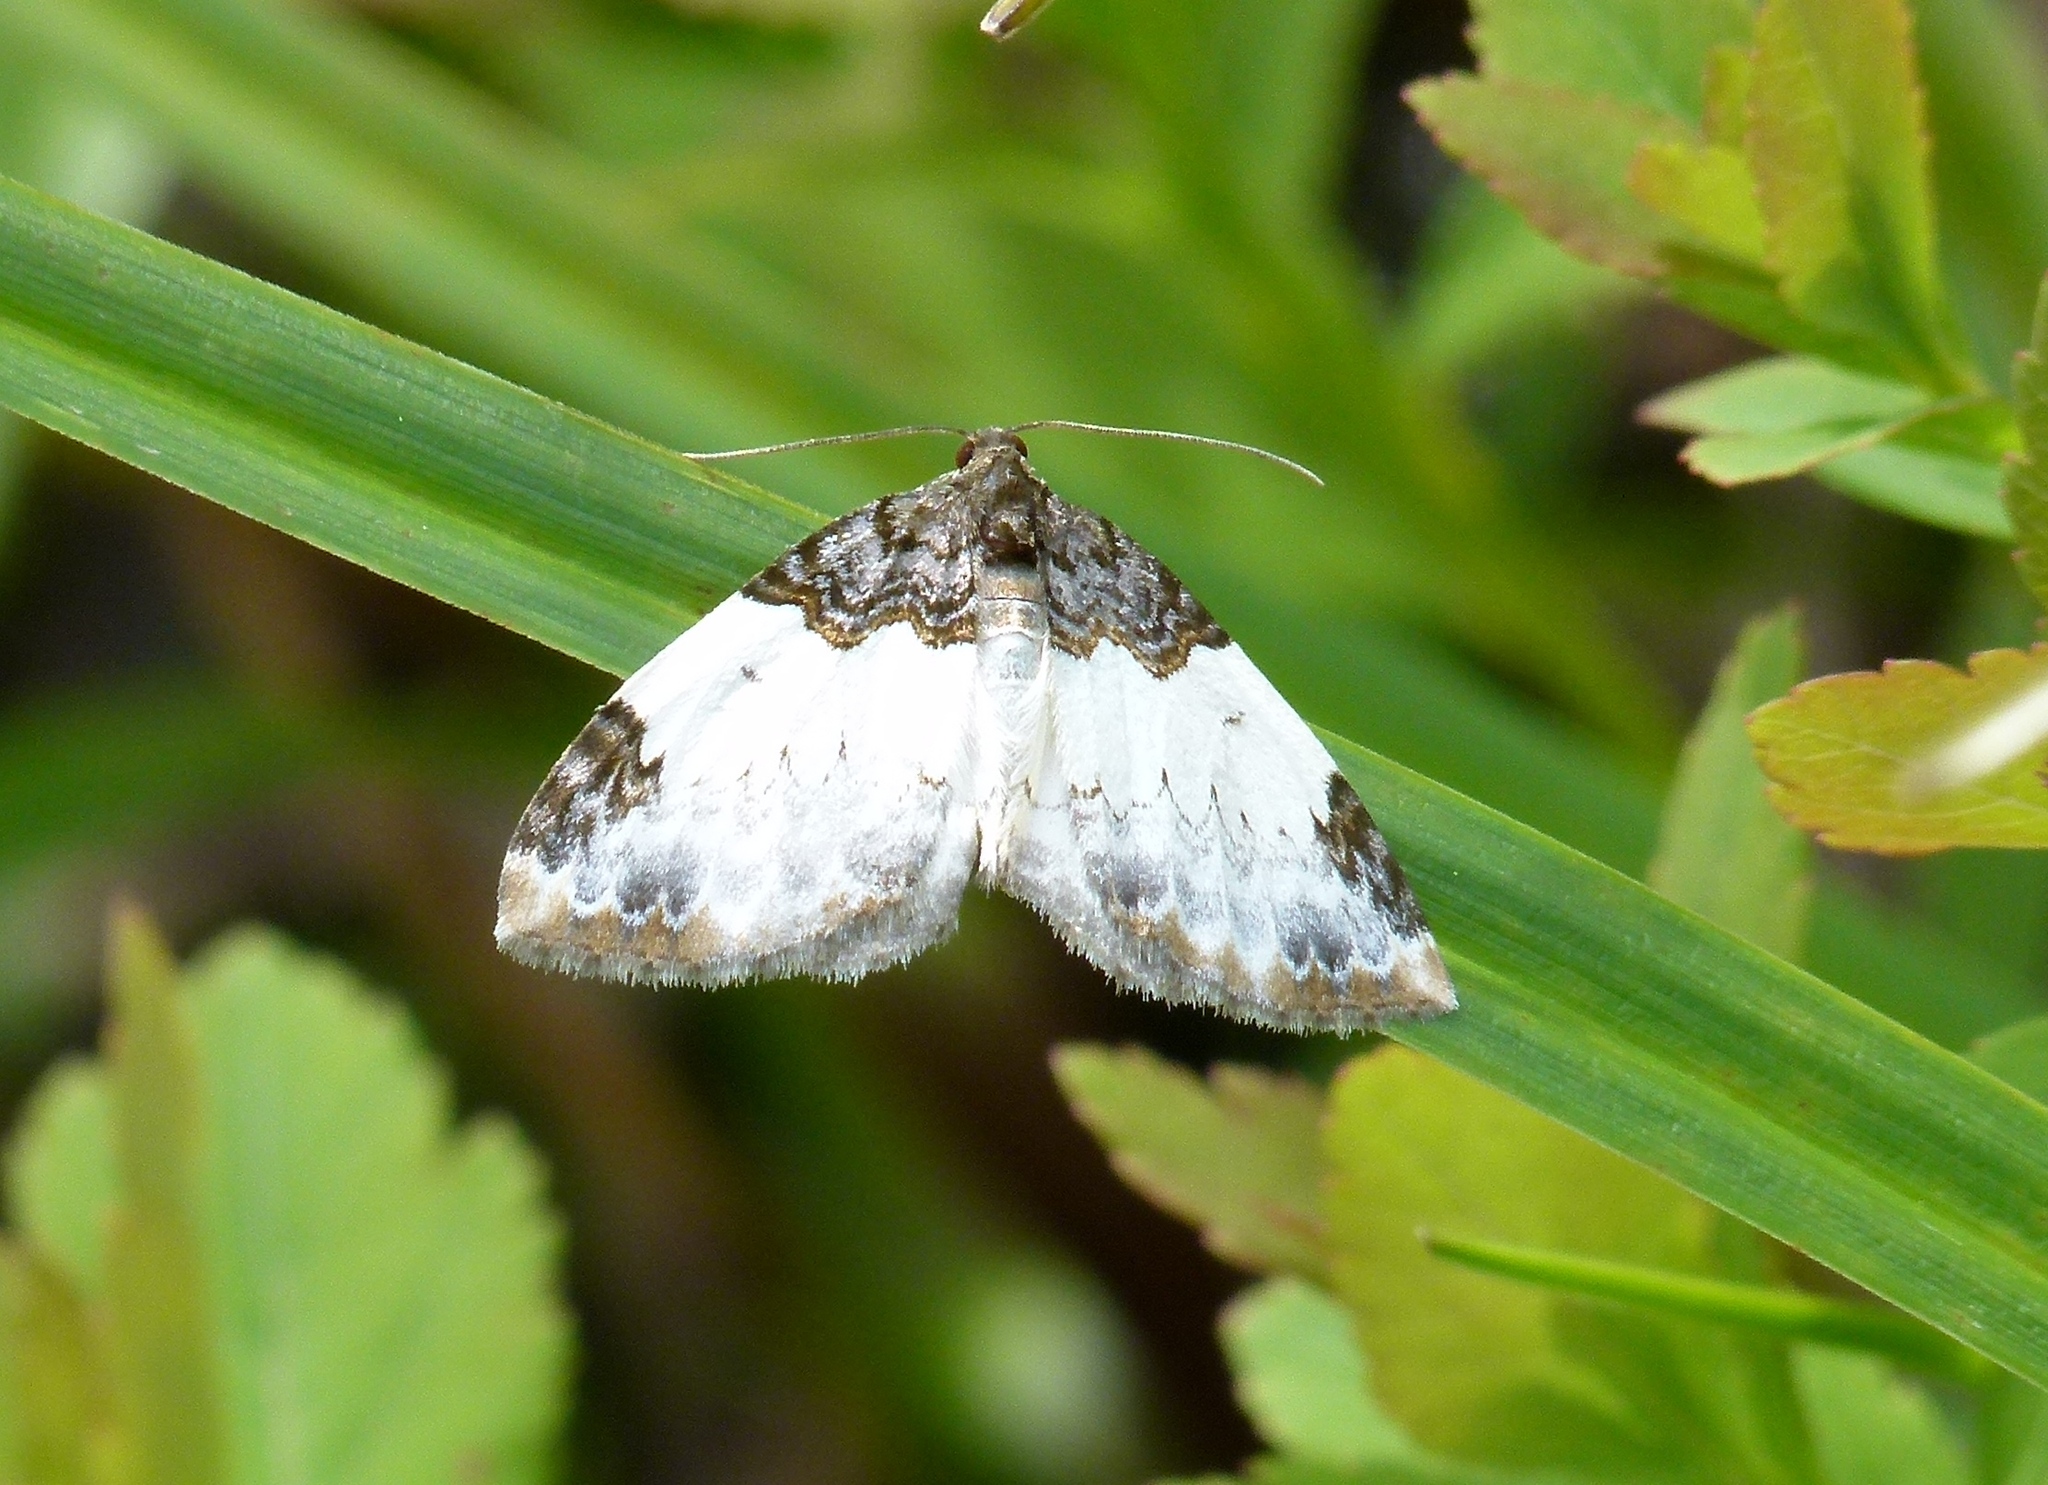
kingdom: Animalia
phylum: Arthropoda
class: Insecta
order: Lepidoptera
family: Geometridae
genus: Mesoleuca
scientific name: Mesoleuca ruficillata
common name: White-ribboned carpet moth
